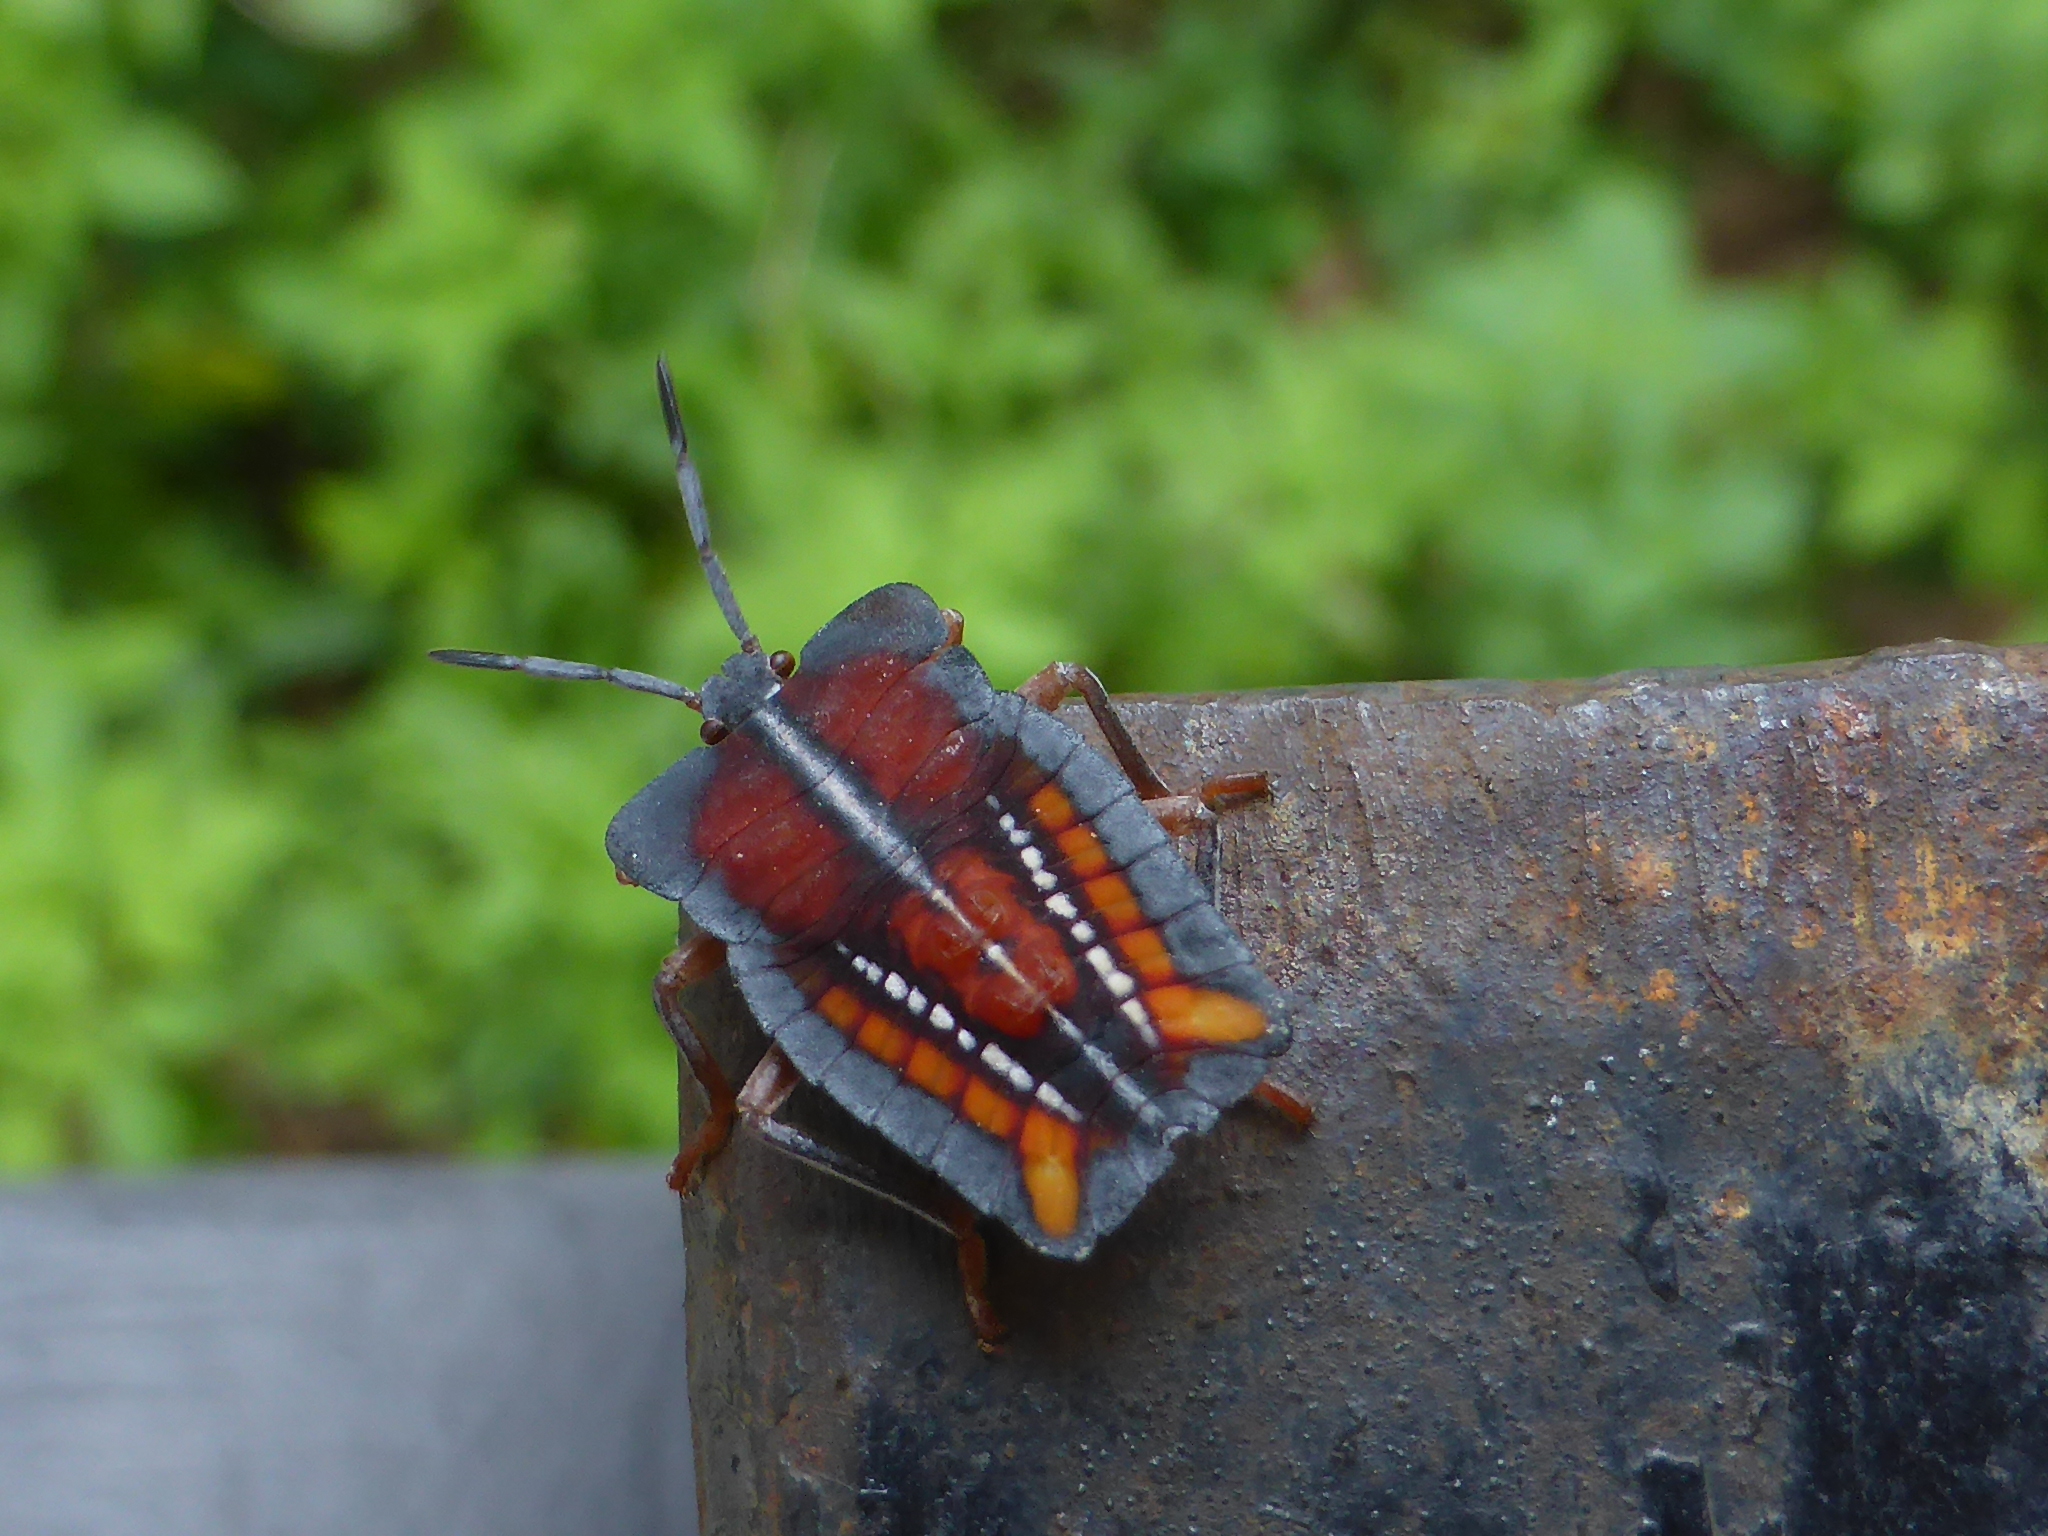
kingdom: Animalia
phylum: Arthropoda
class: Insecta
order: Hemiptera
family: Tessaratomidae
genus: Tessaratoma
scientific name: Tessaratoma papillosa
